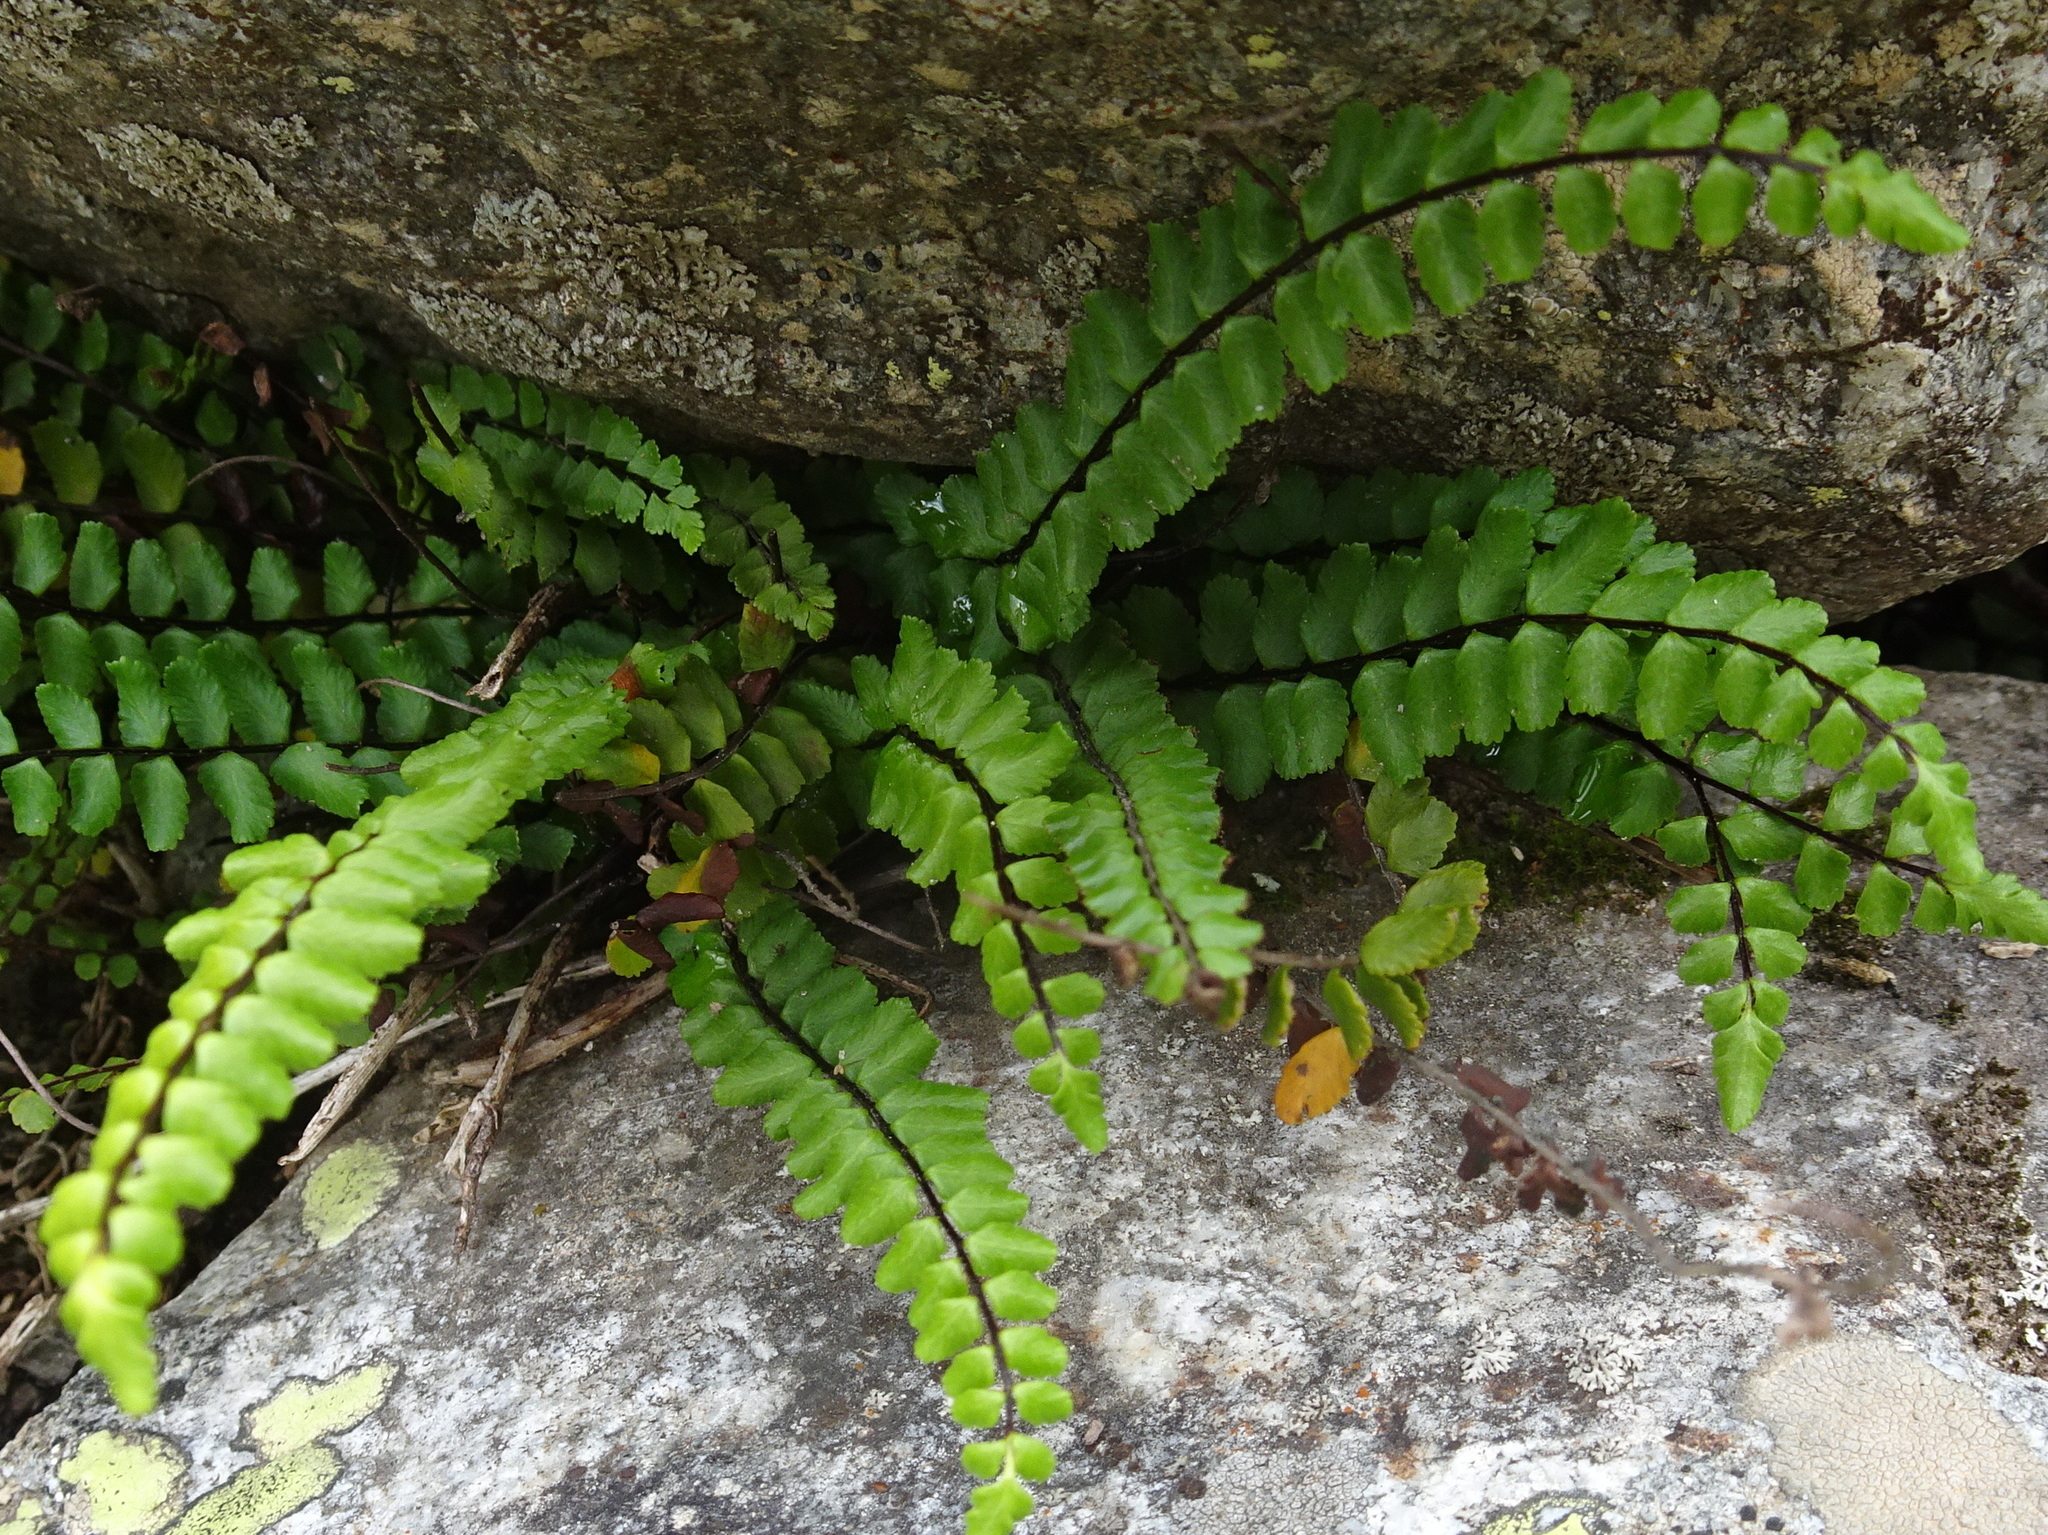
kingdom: Plantae
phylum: Tracheophyta
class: Polypodiopsida
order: Polypodiales
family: Aspleniaceae
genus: Asplenium
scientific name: Asplenium trichomanes
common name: Maidenhair spleenwort
